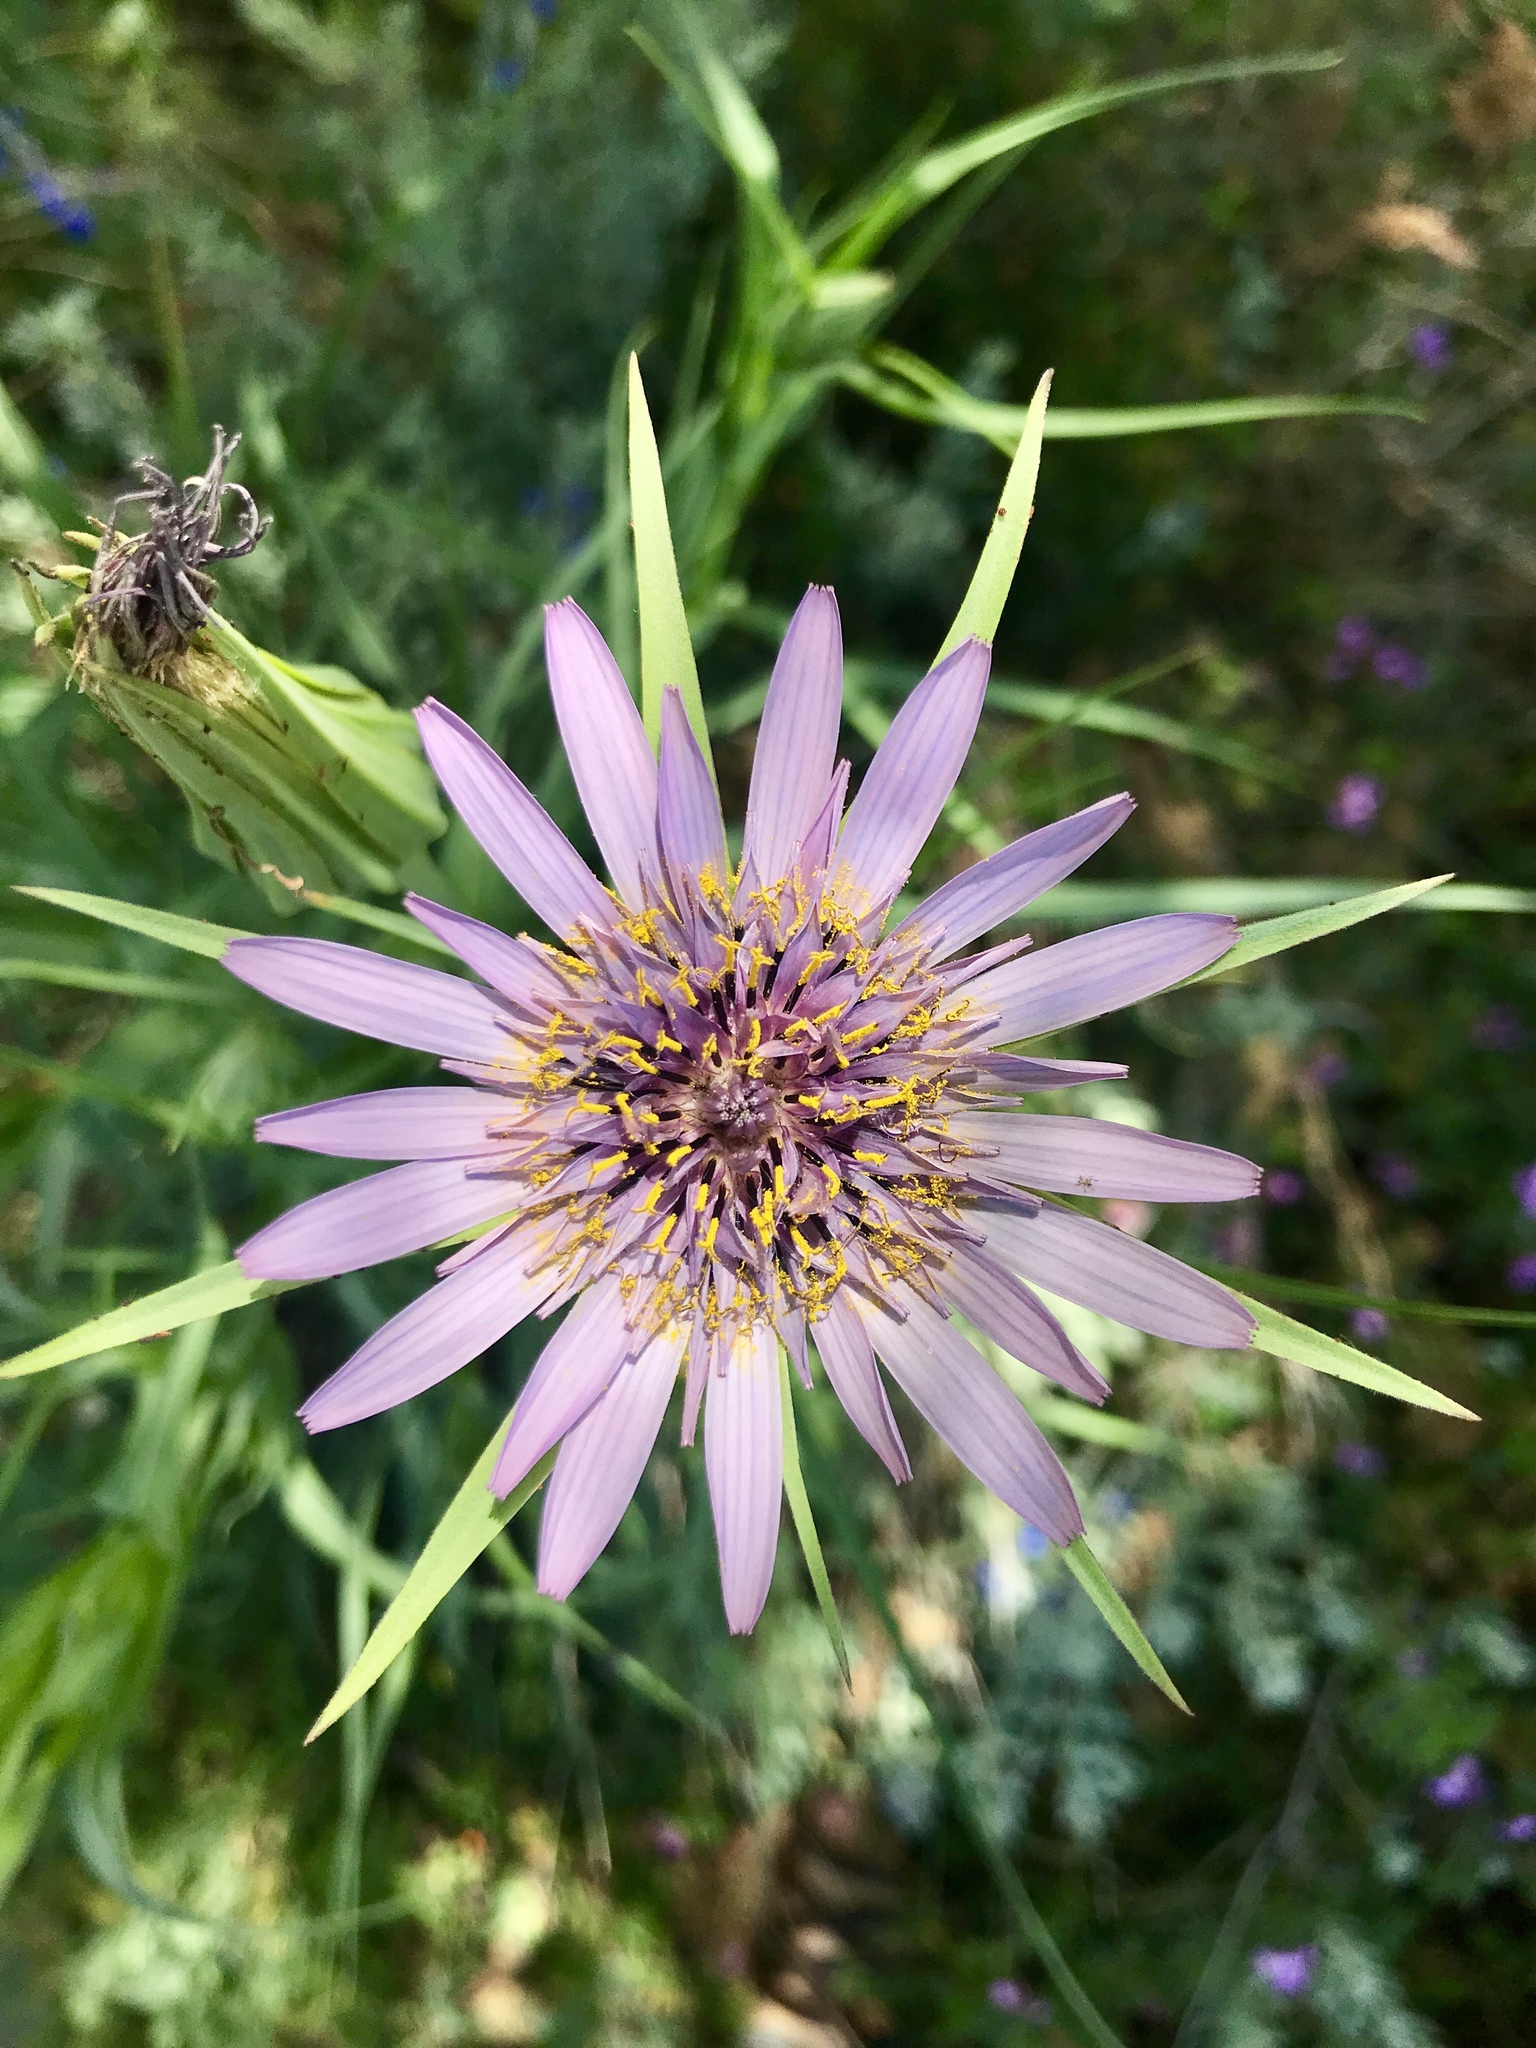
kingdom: Plantae
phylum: Tracheophyta
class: Magnoliopsida
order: Asterales
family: Asteraceae
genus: Tragopogon
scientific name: Tragopogon porrifolius
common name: Salsify
